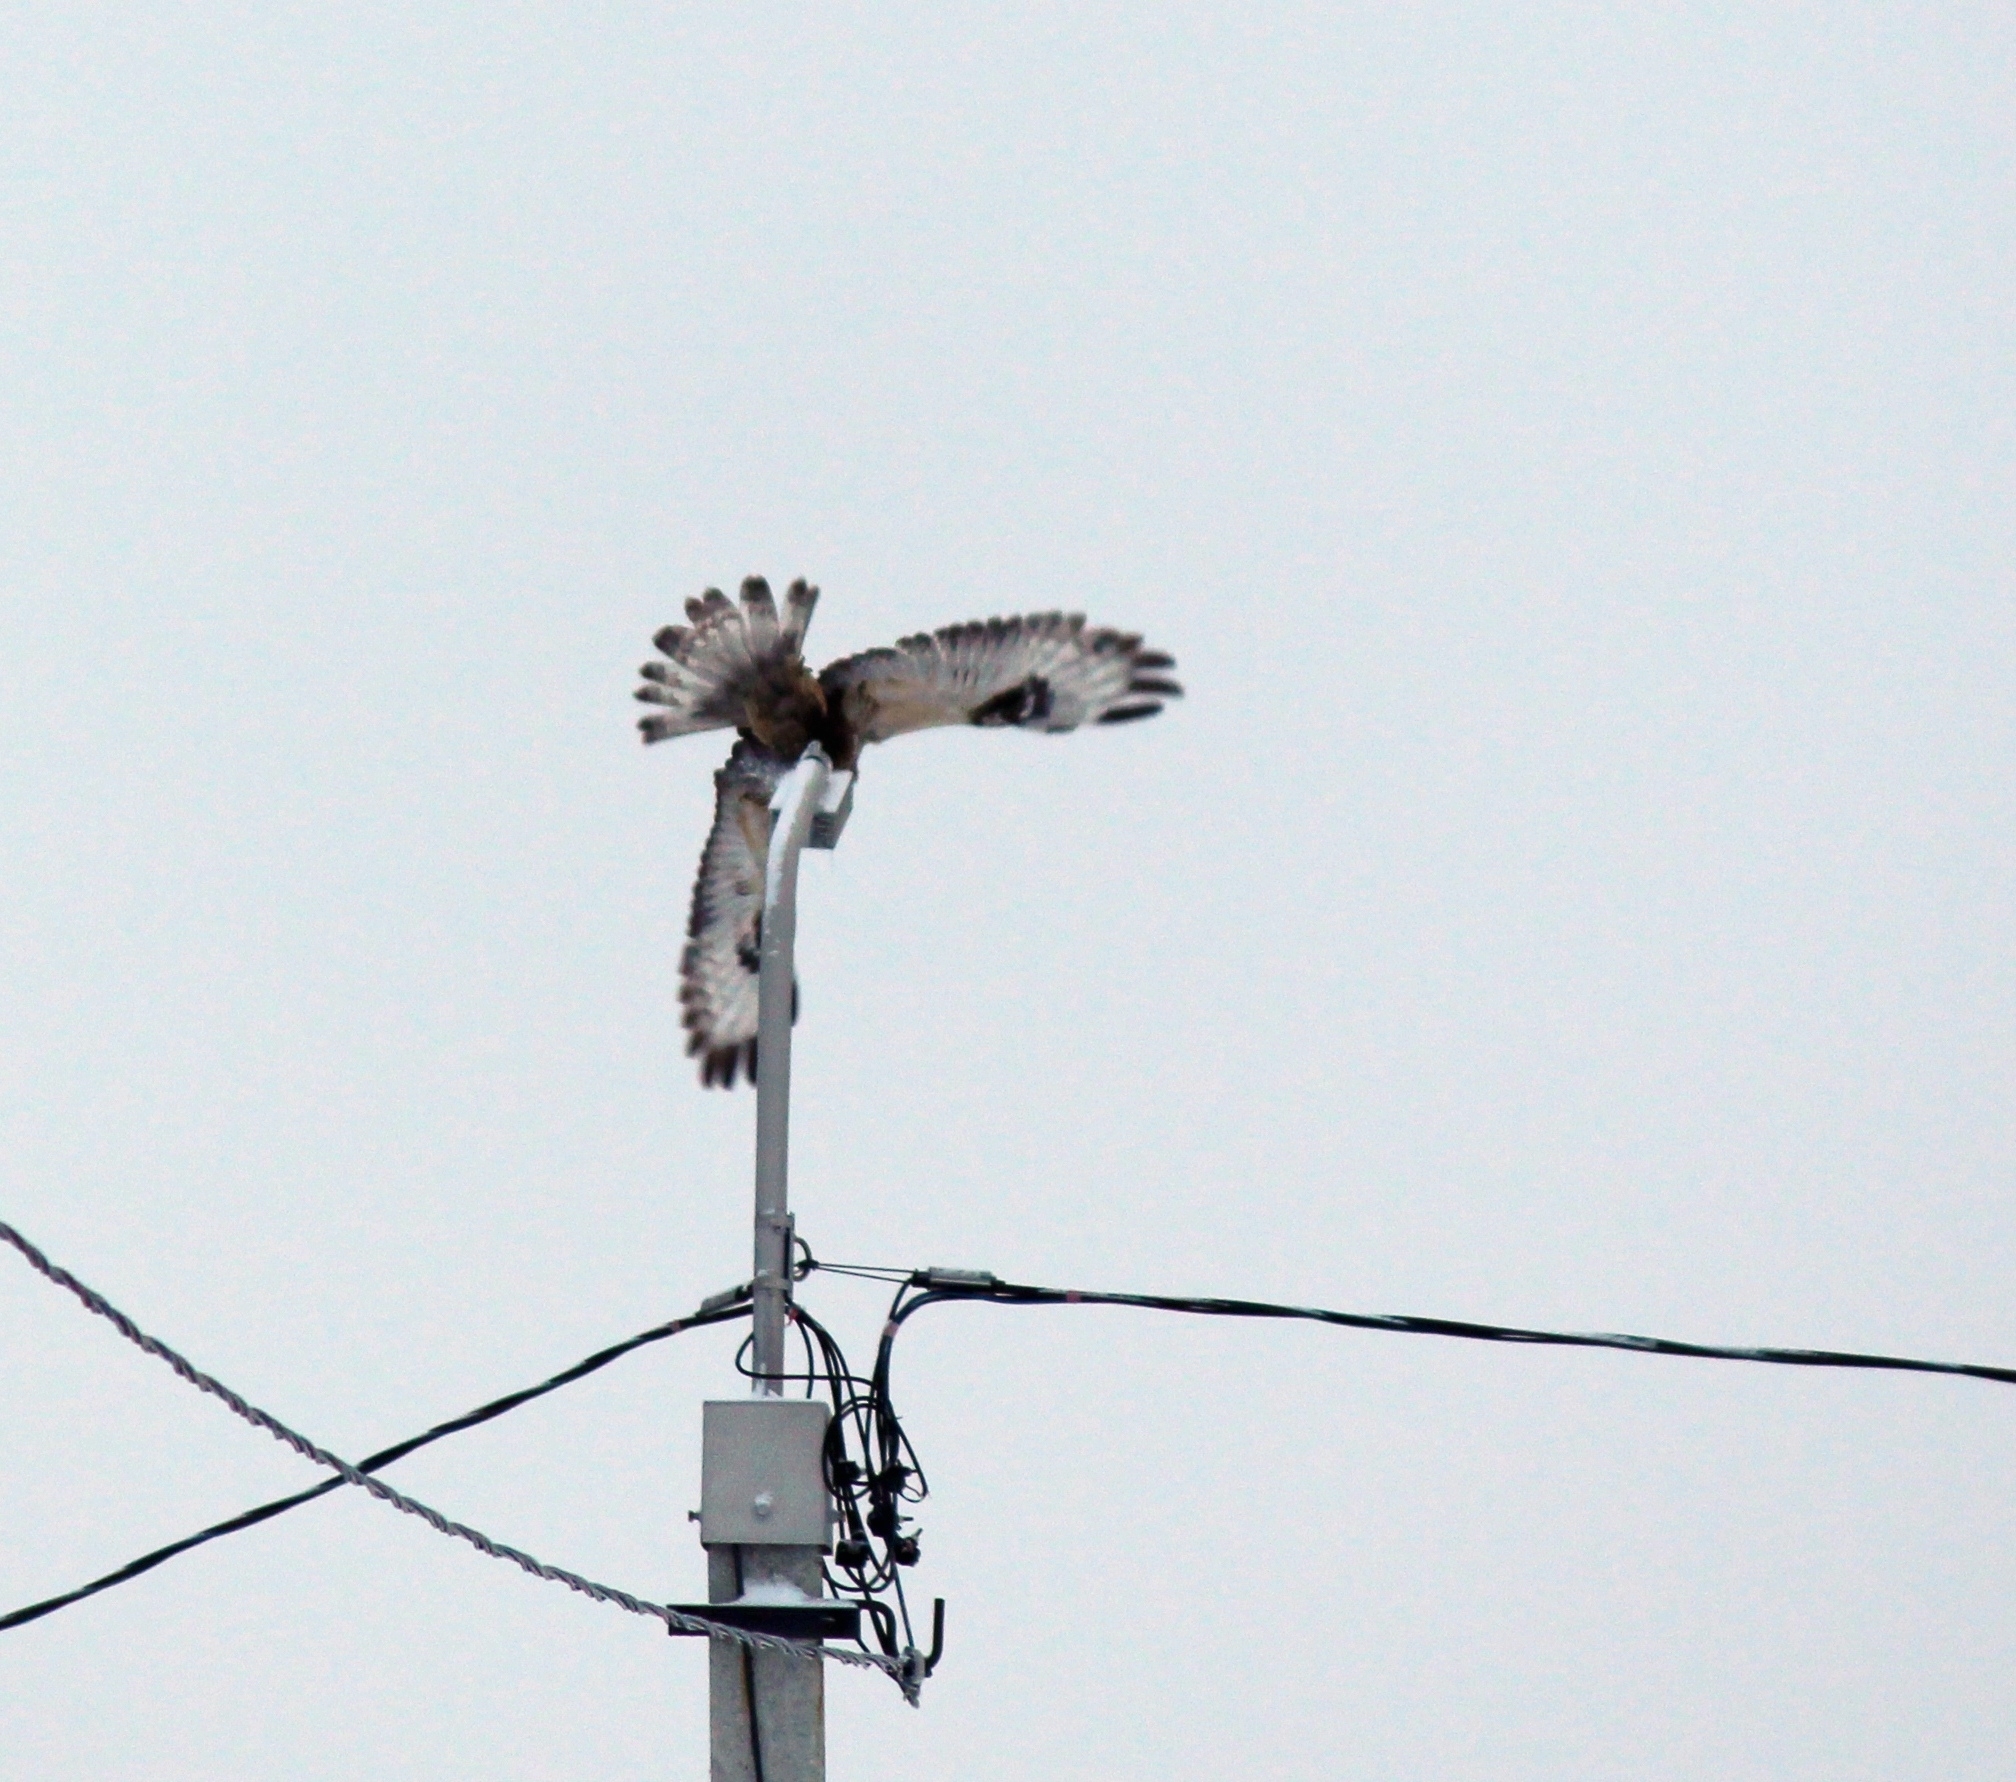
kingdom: Animalia
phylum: Chordata
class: Aves
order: Accipitriformes
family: Accipitridae
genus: Buteo
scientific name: Buteo lagopus
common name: Rough-legged buzzard
